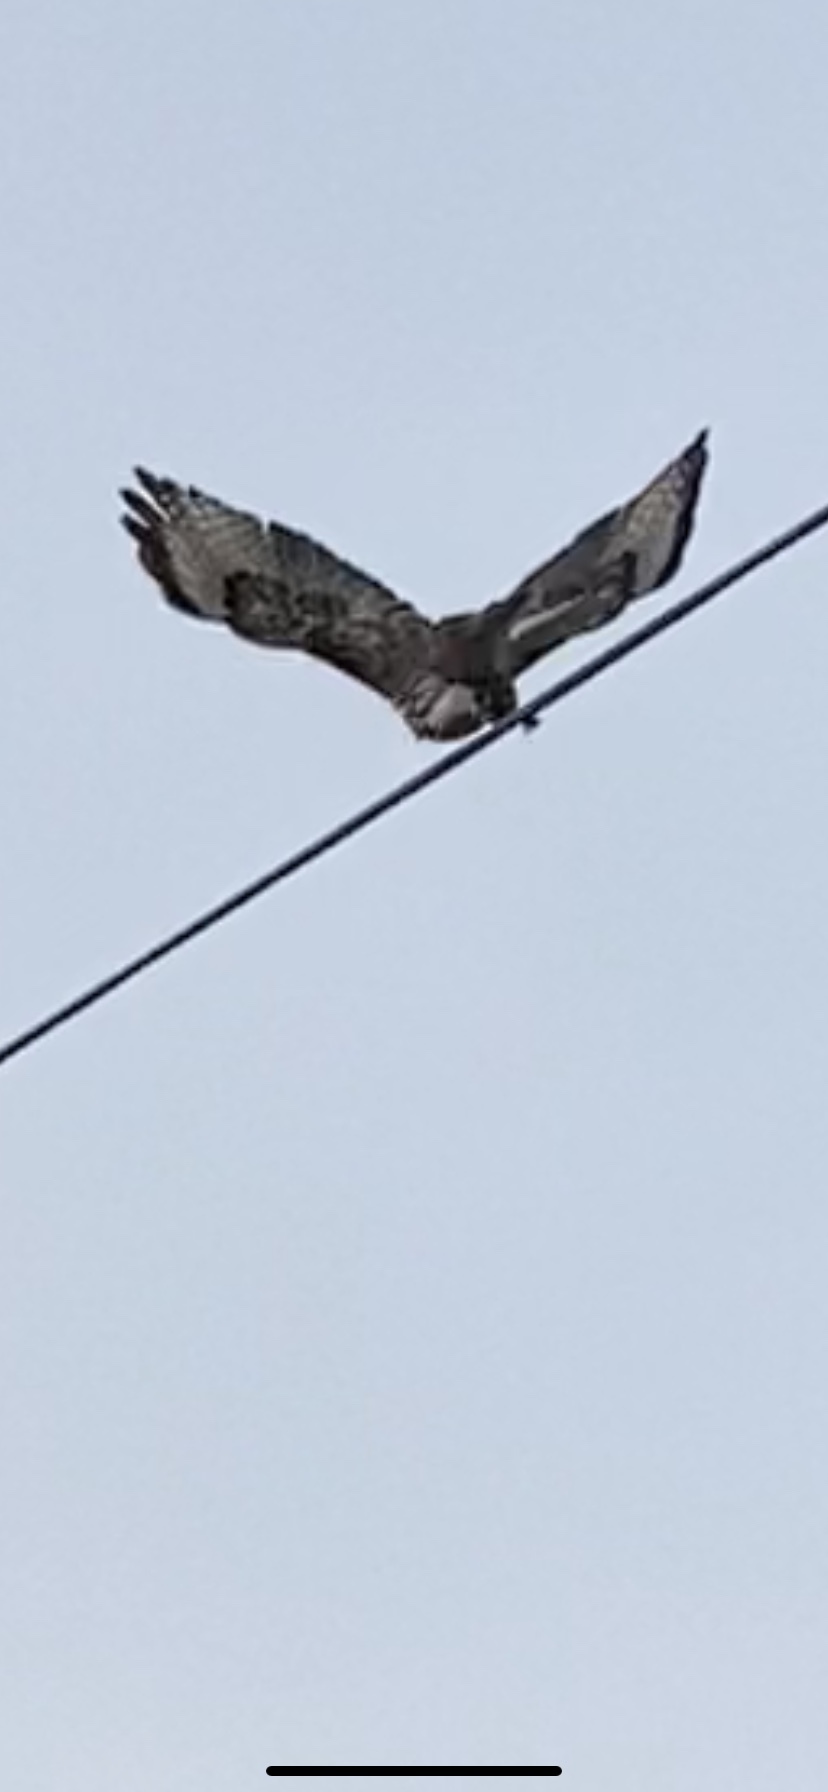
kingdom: Animalia
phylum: Chordata
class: Aves
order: Accipitriformes
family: Accipitridae
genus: Buteo
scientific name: Buteo jamaicensis
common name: Red-tailed hawk
